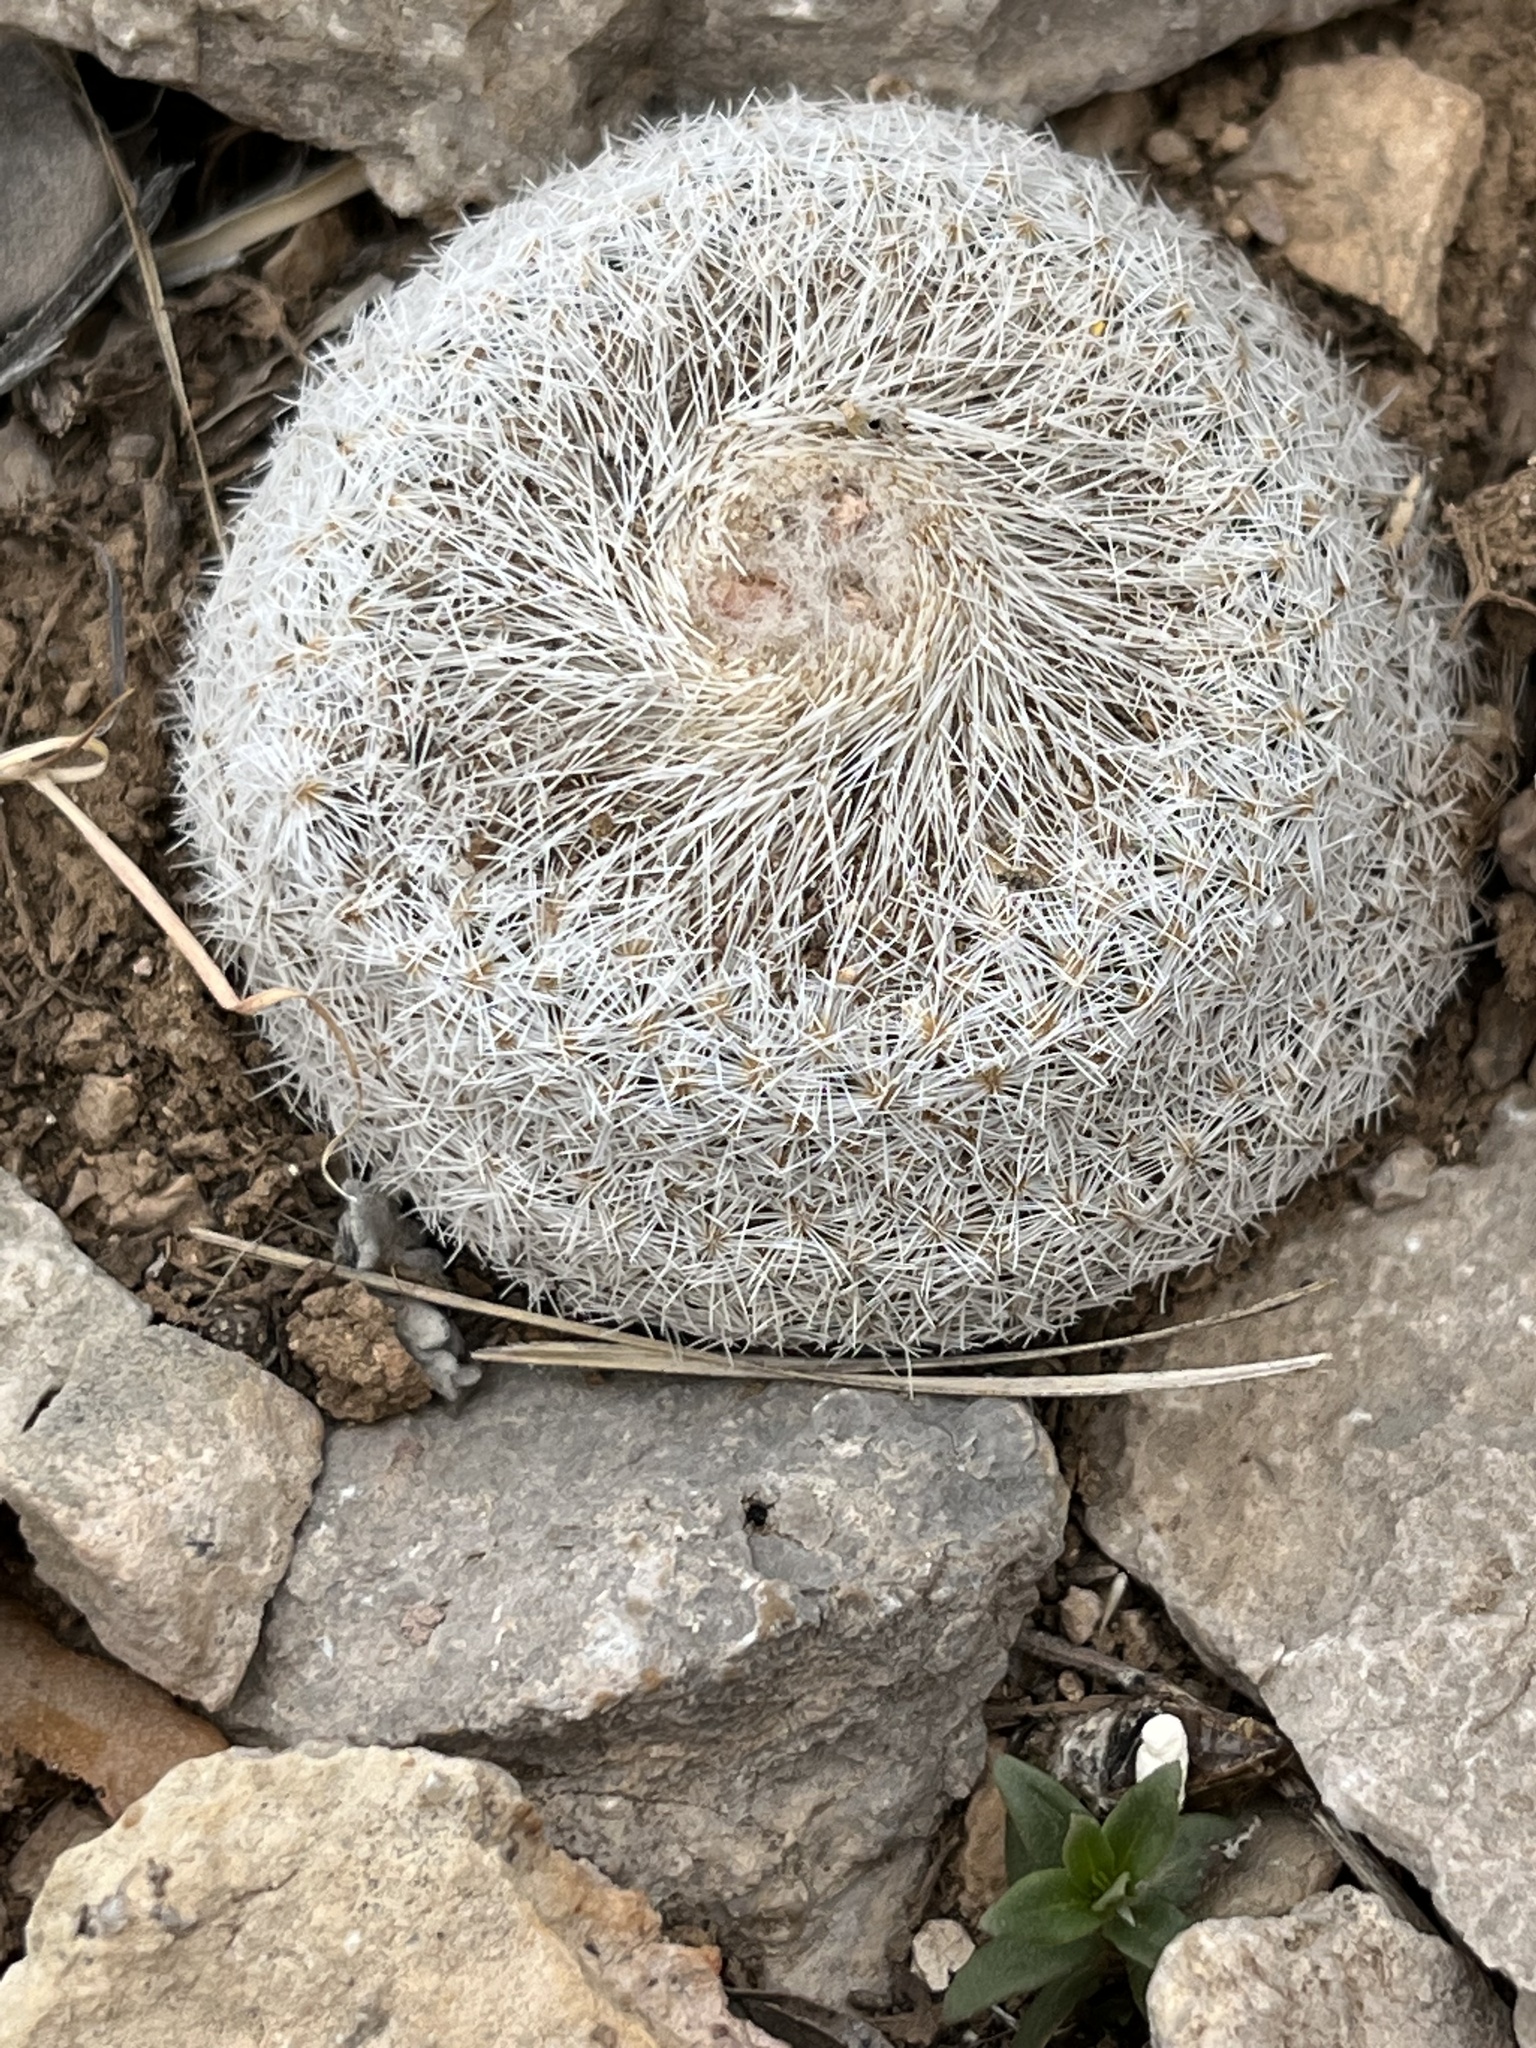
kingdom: Plantae
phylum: Tracheophyta
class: Magnoliopsida
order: Caryophyllales
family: Cactaceae
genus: Epithelantha
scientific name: Epithelantha micromeris
